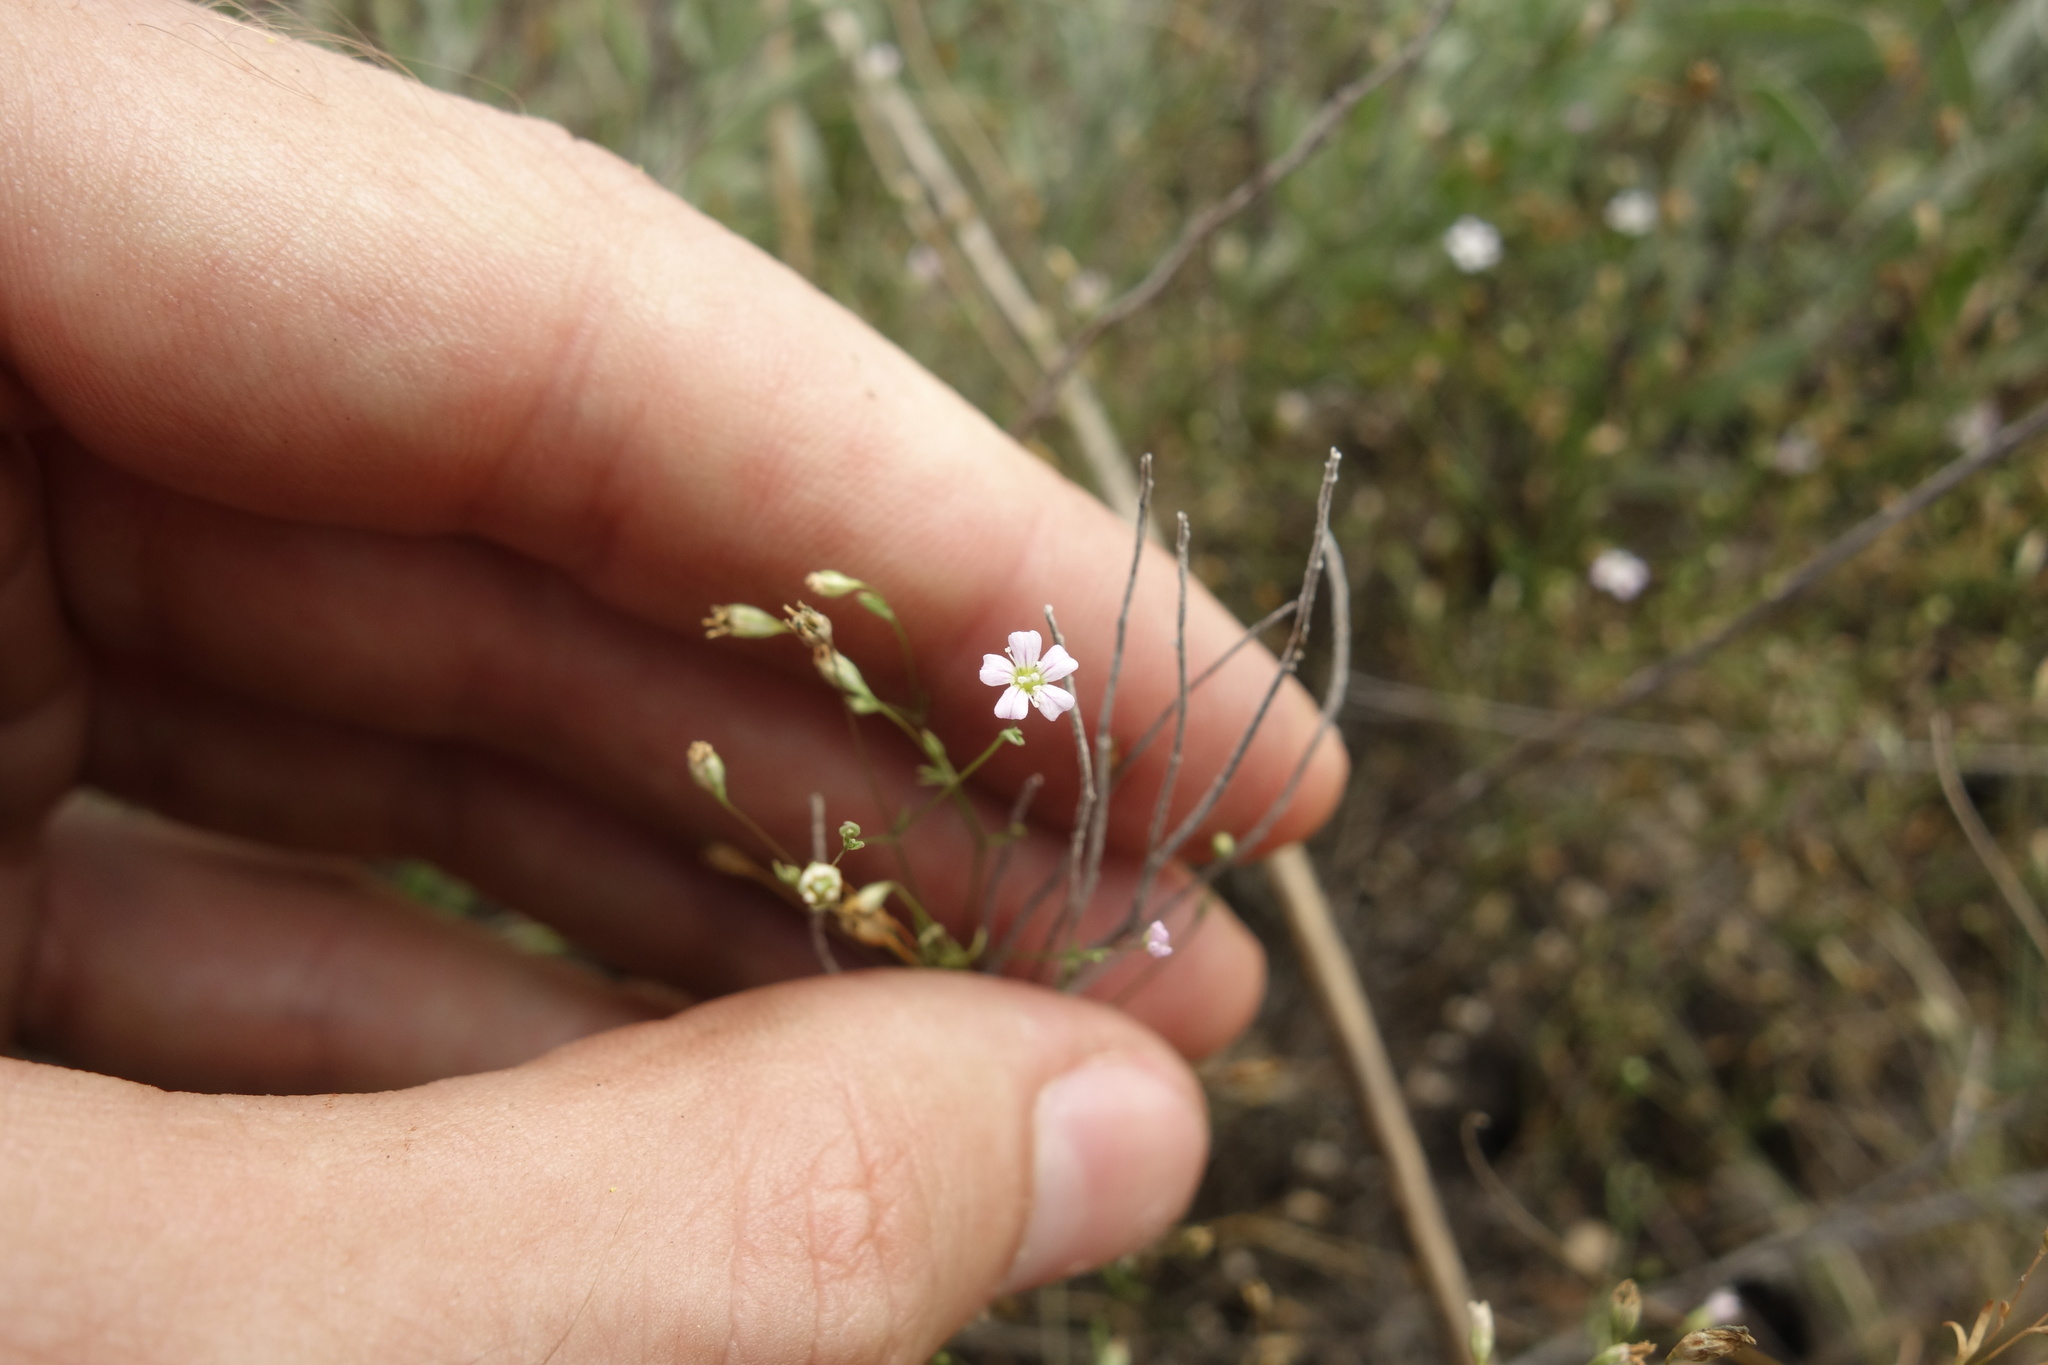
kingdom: Plantae
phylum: Tracheophyta
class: Magnoliopsida
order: Caryophyllales
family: Caryophyllaceae
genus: Psammophiliella
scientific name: Psammophiliella muralis
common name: Cushion baby's-breath
